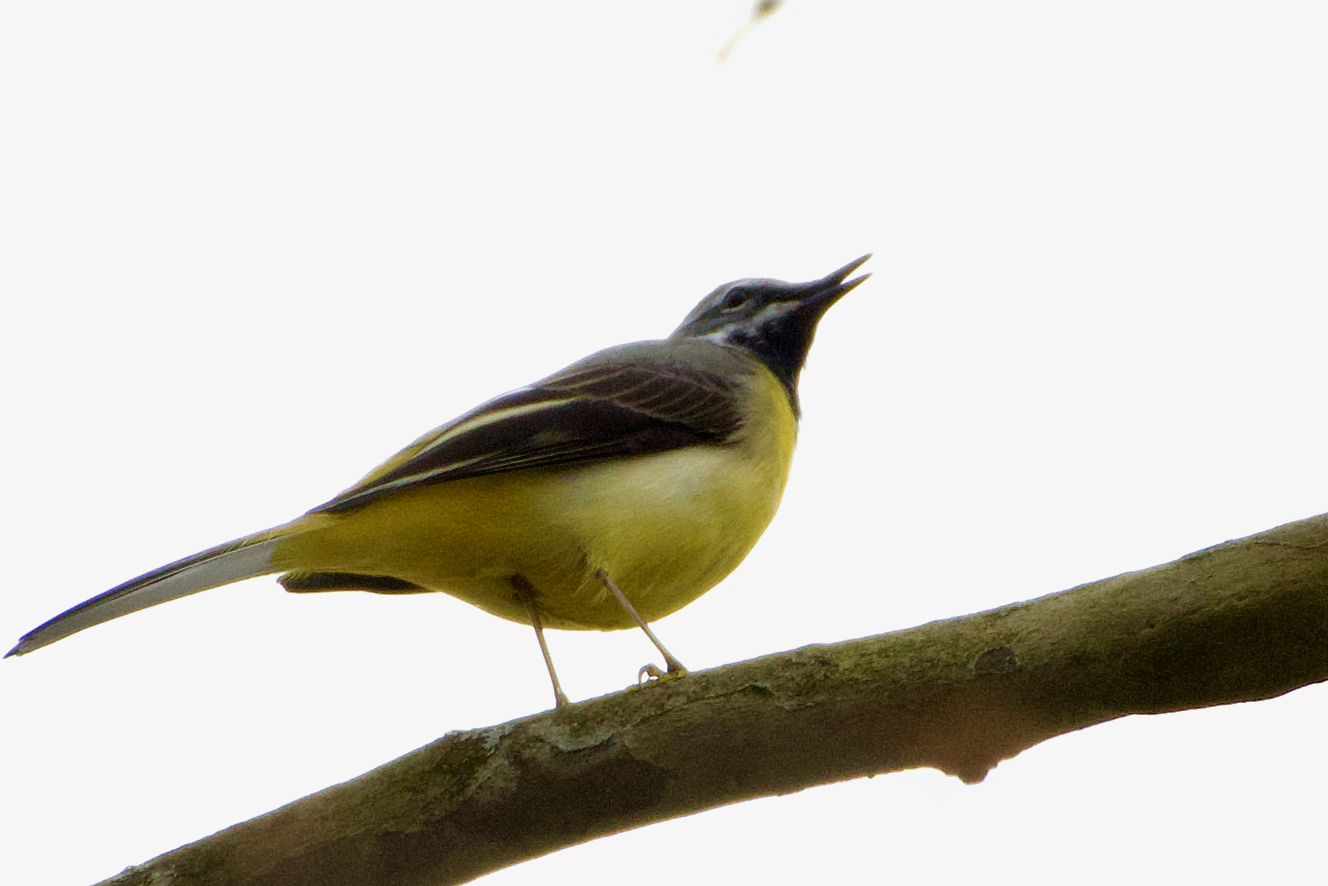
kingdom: Animalia
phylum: Chordata
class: Aves
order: Passeriformes
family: Motacillidae
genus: Motacilla
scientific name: Motacilla cinerea
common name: Grey wagtail
